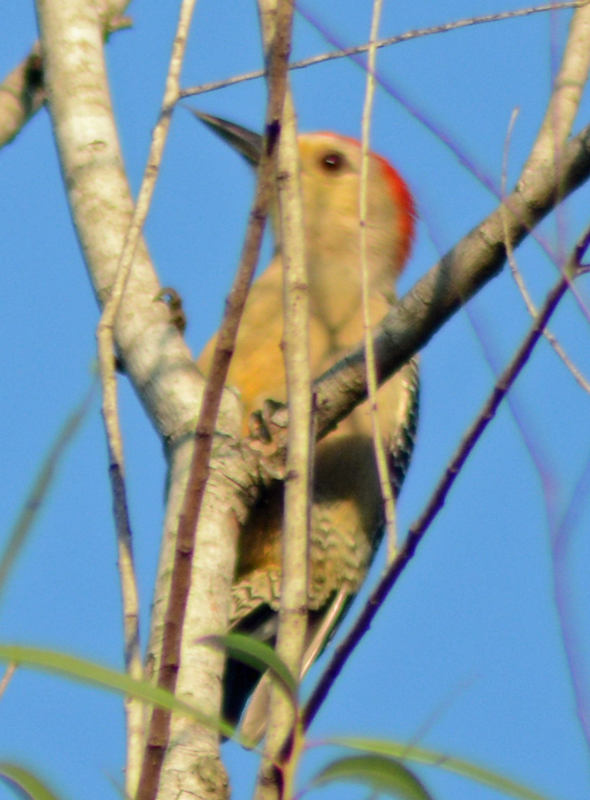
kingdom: Animalia
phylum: Chordata
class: Aves
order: Piciformes
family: Picidae
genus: Melanerpes
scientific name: Melanerpes aurifrons
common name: Golden-fronted woodpecker
